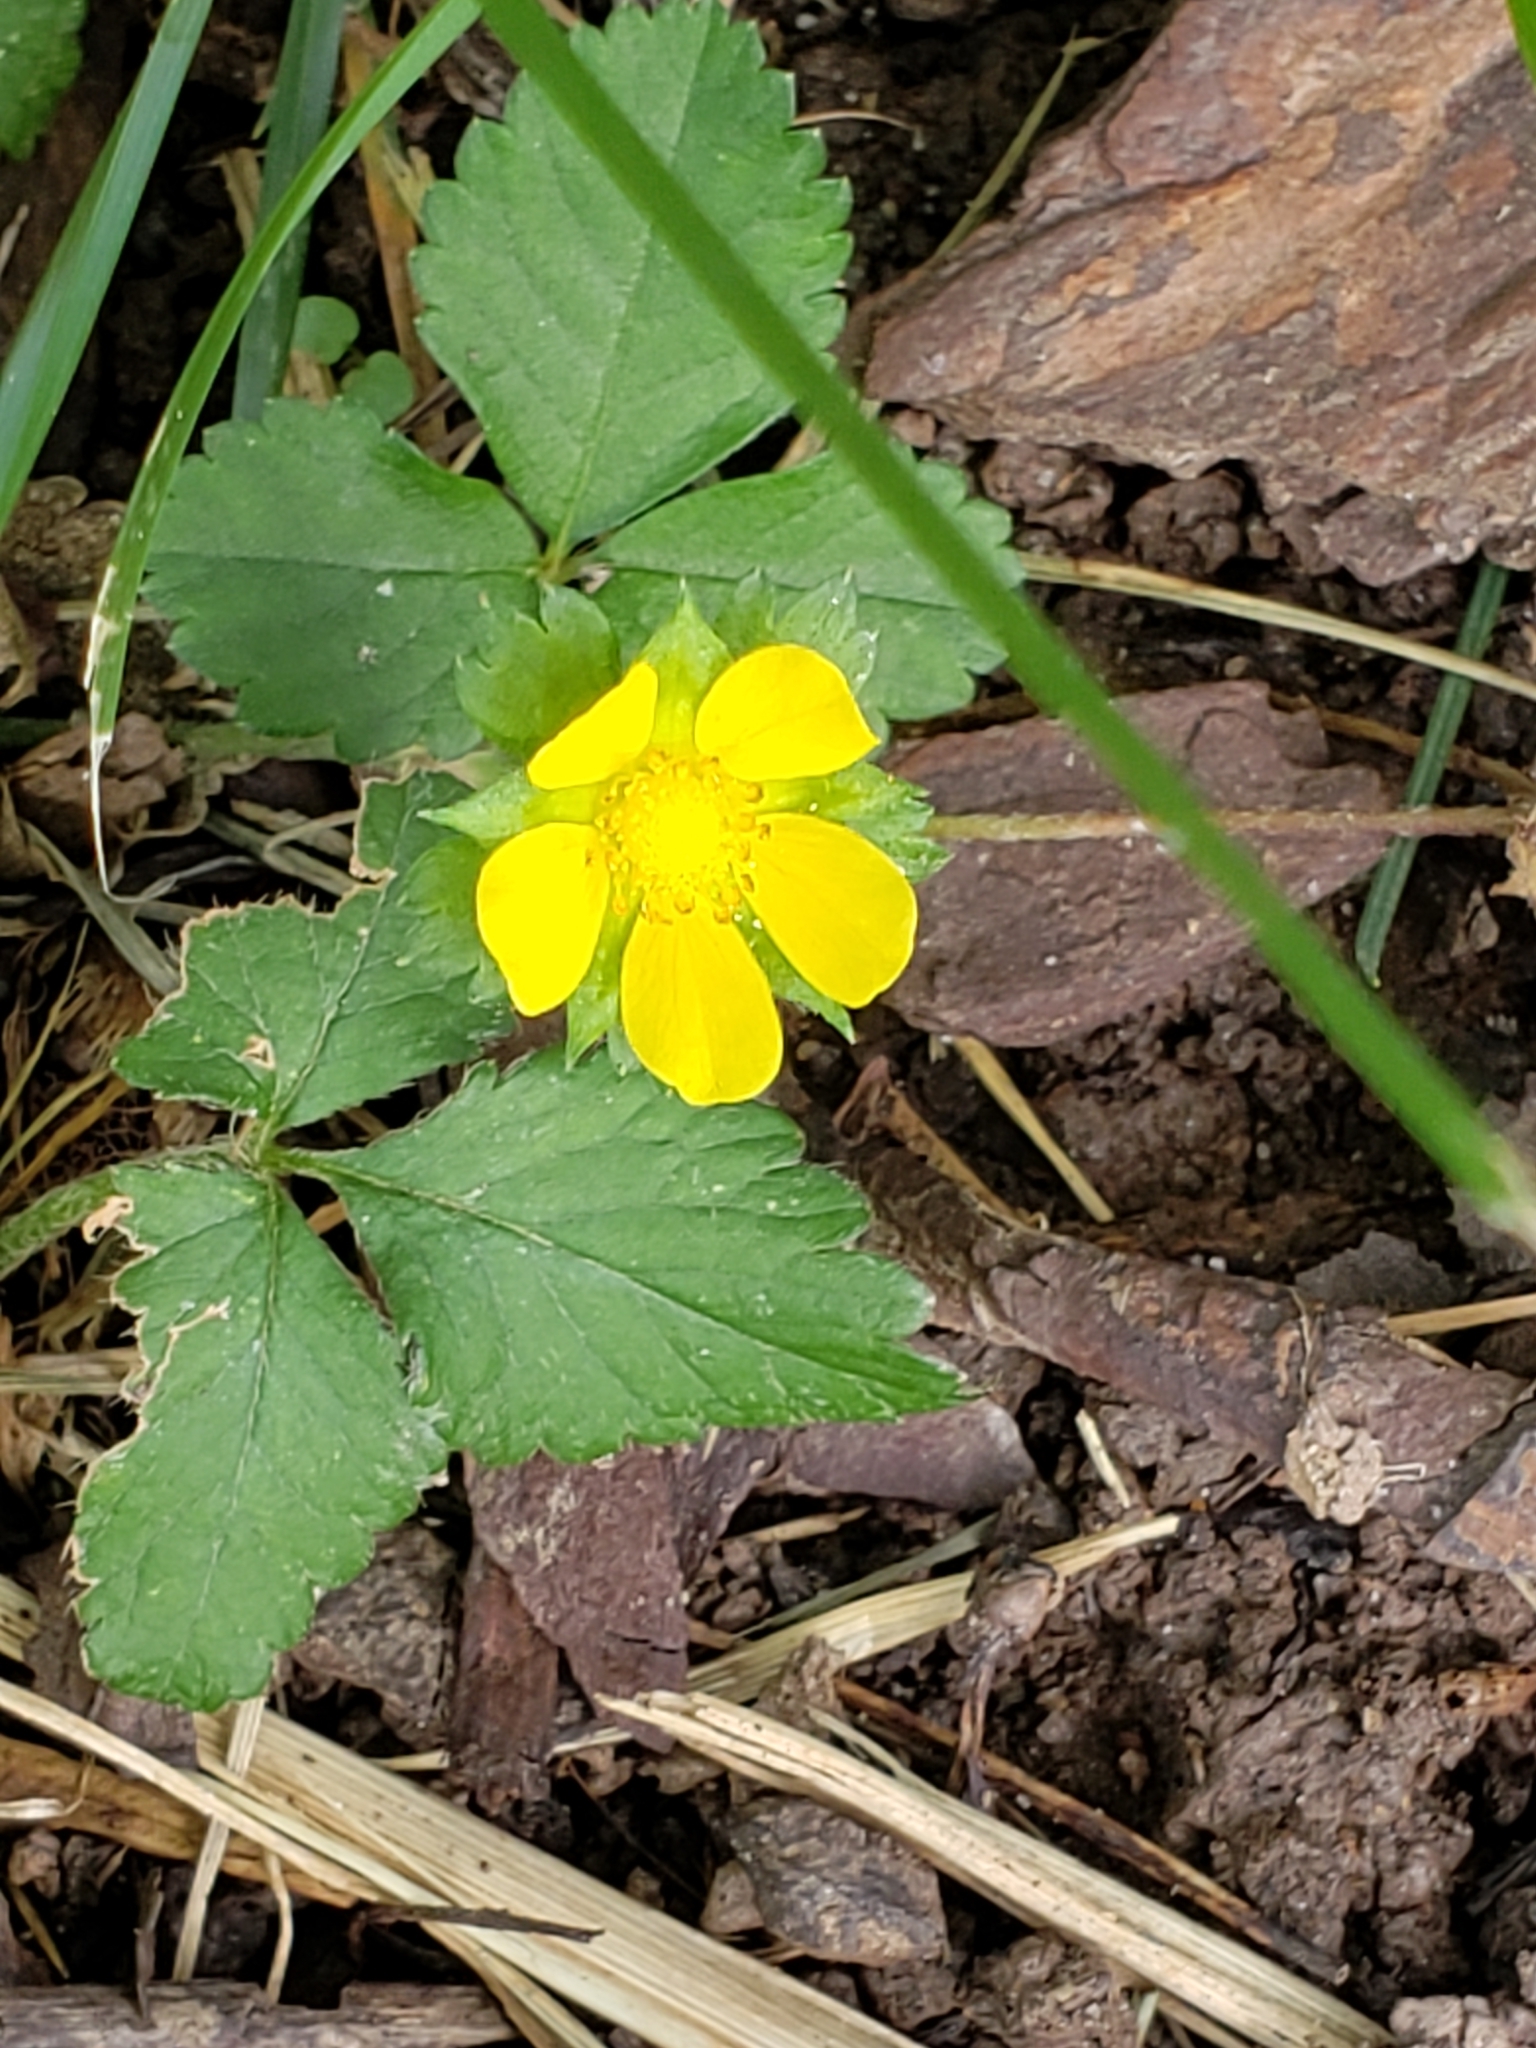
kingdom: Plantae
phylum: Tracheophyta
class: Magnoliopsida
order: Rosales
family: Rosaceae
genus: Potentilla
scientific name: Potentilla indica
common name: Yellow-flowered strawberry
